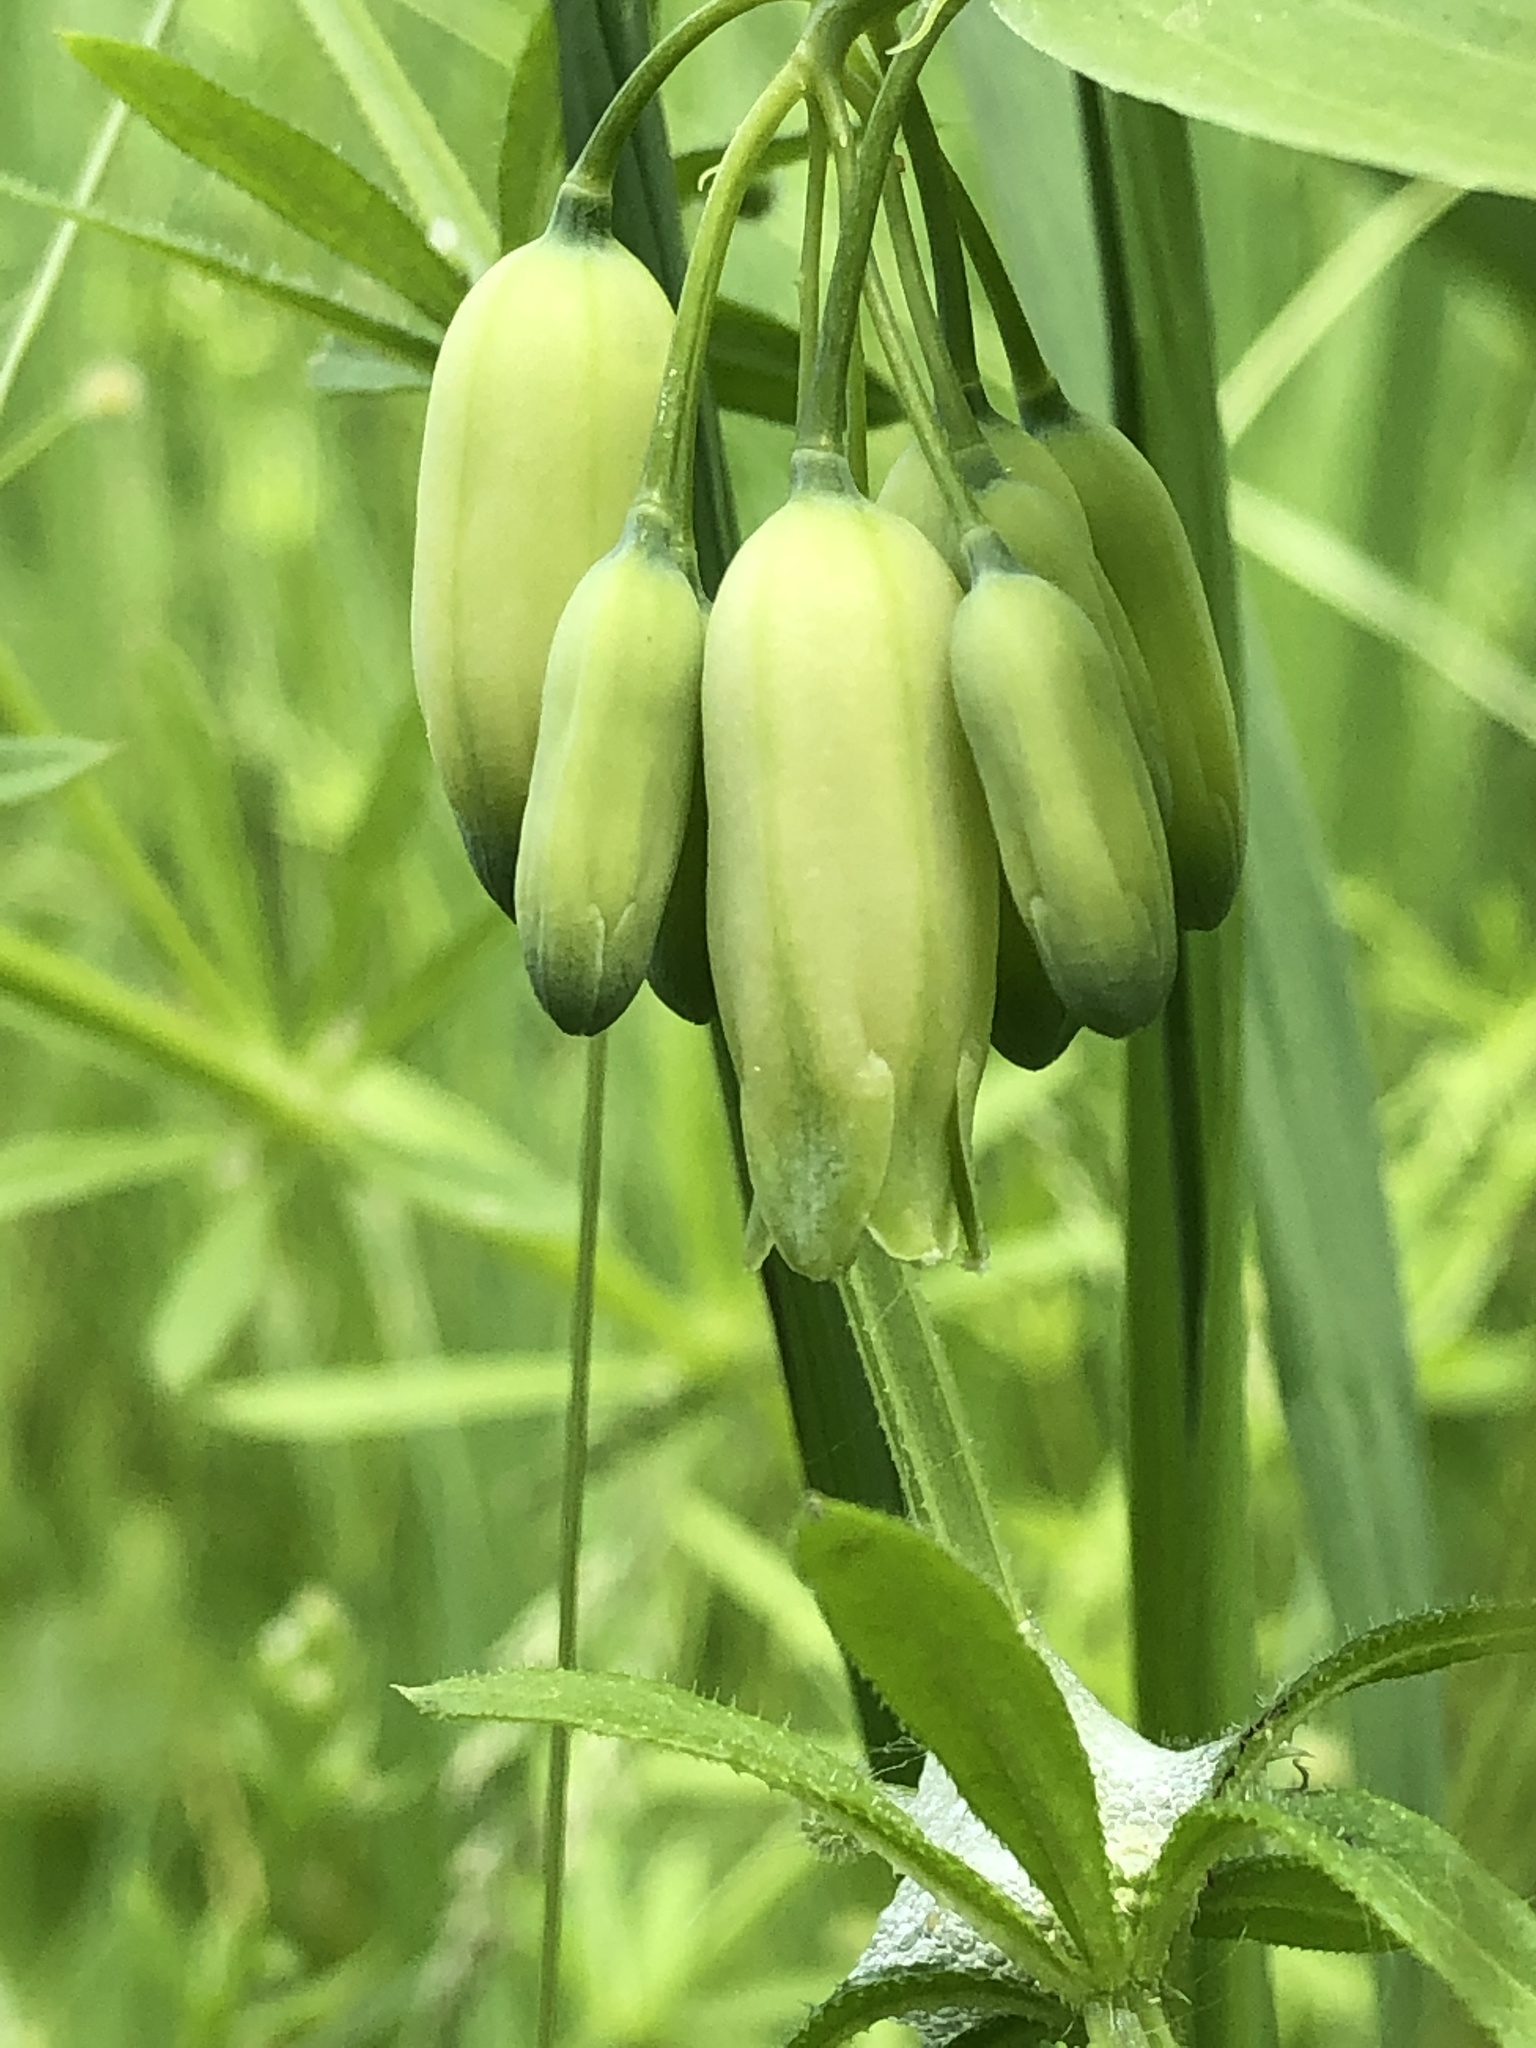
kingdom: Plantae
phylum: Tracheophyta
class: Liliopsida
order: Asparagales
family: Asparagaceae
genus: Polygonatum
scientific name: Polygonatum biflorum
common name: American solomon's-seal
